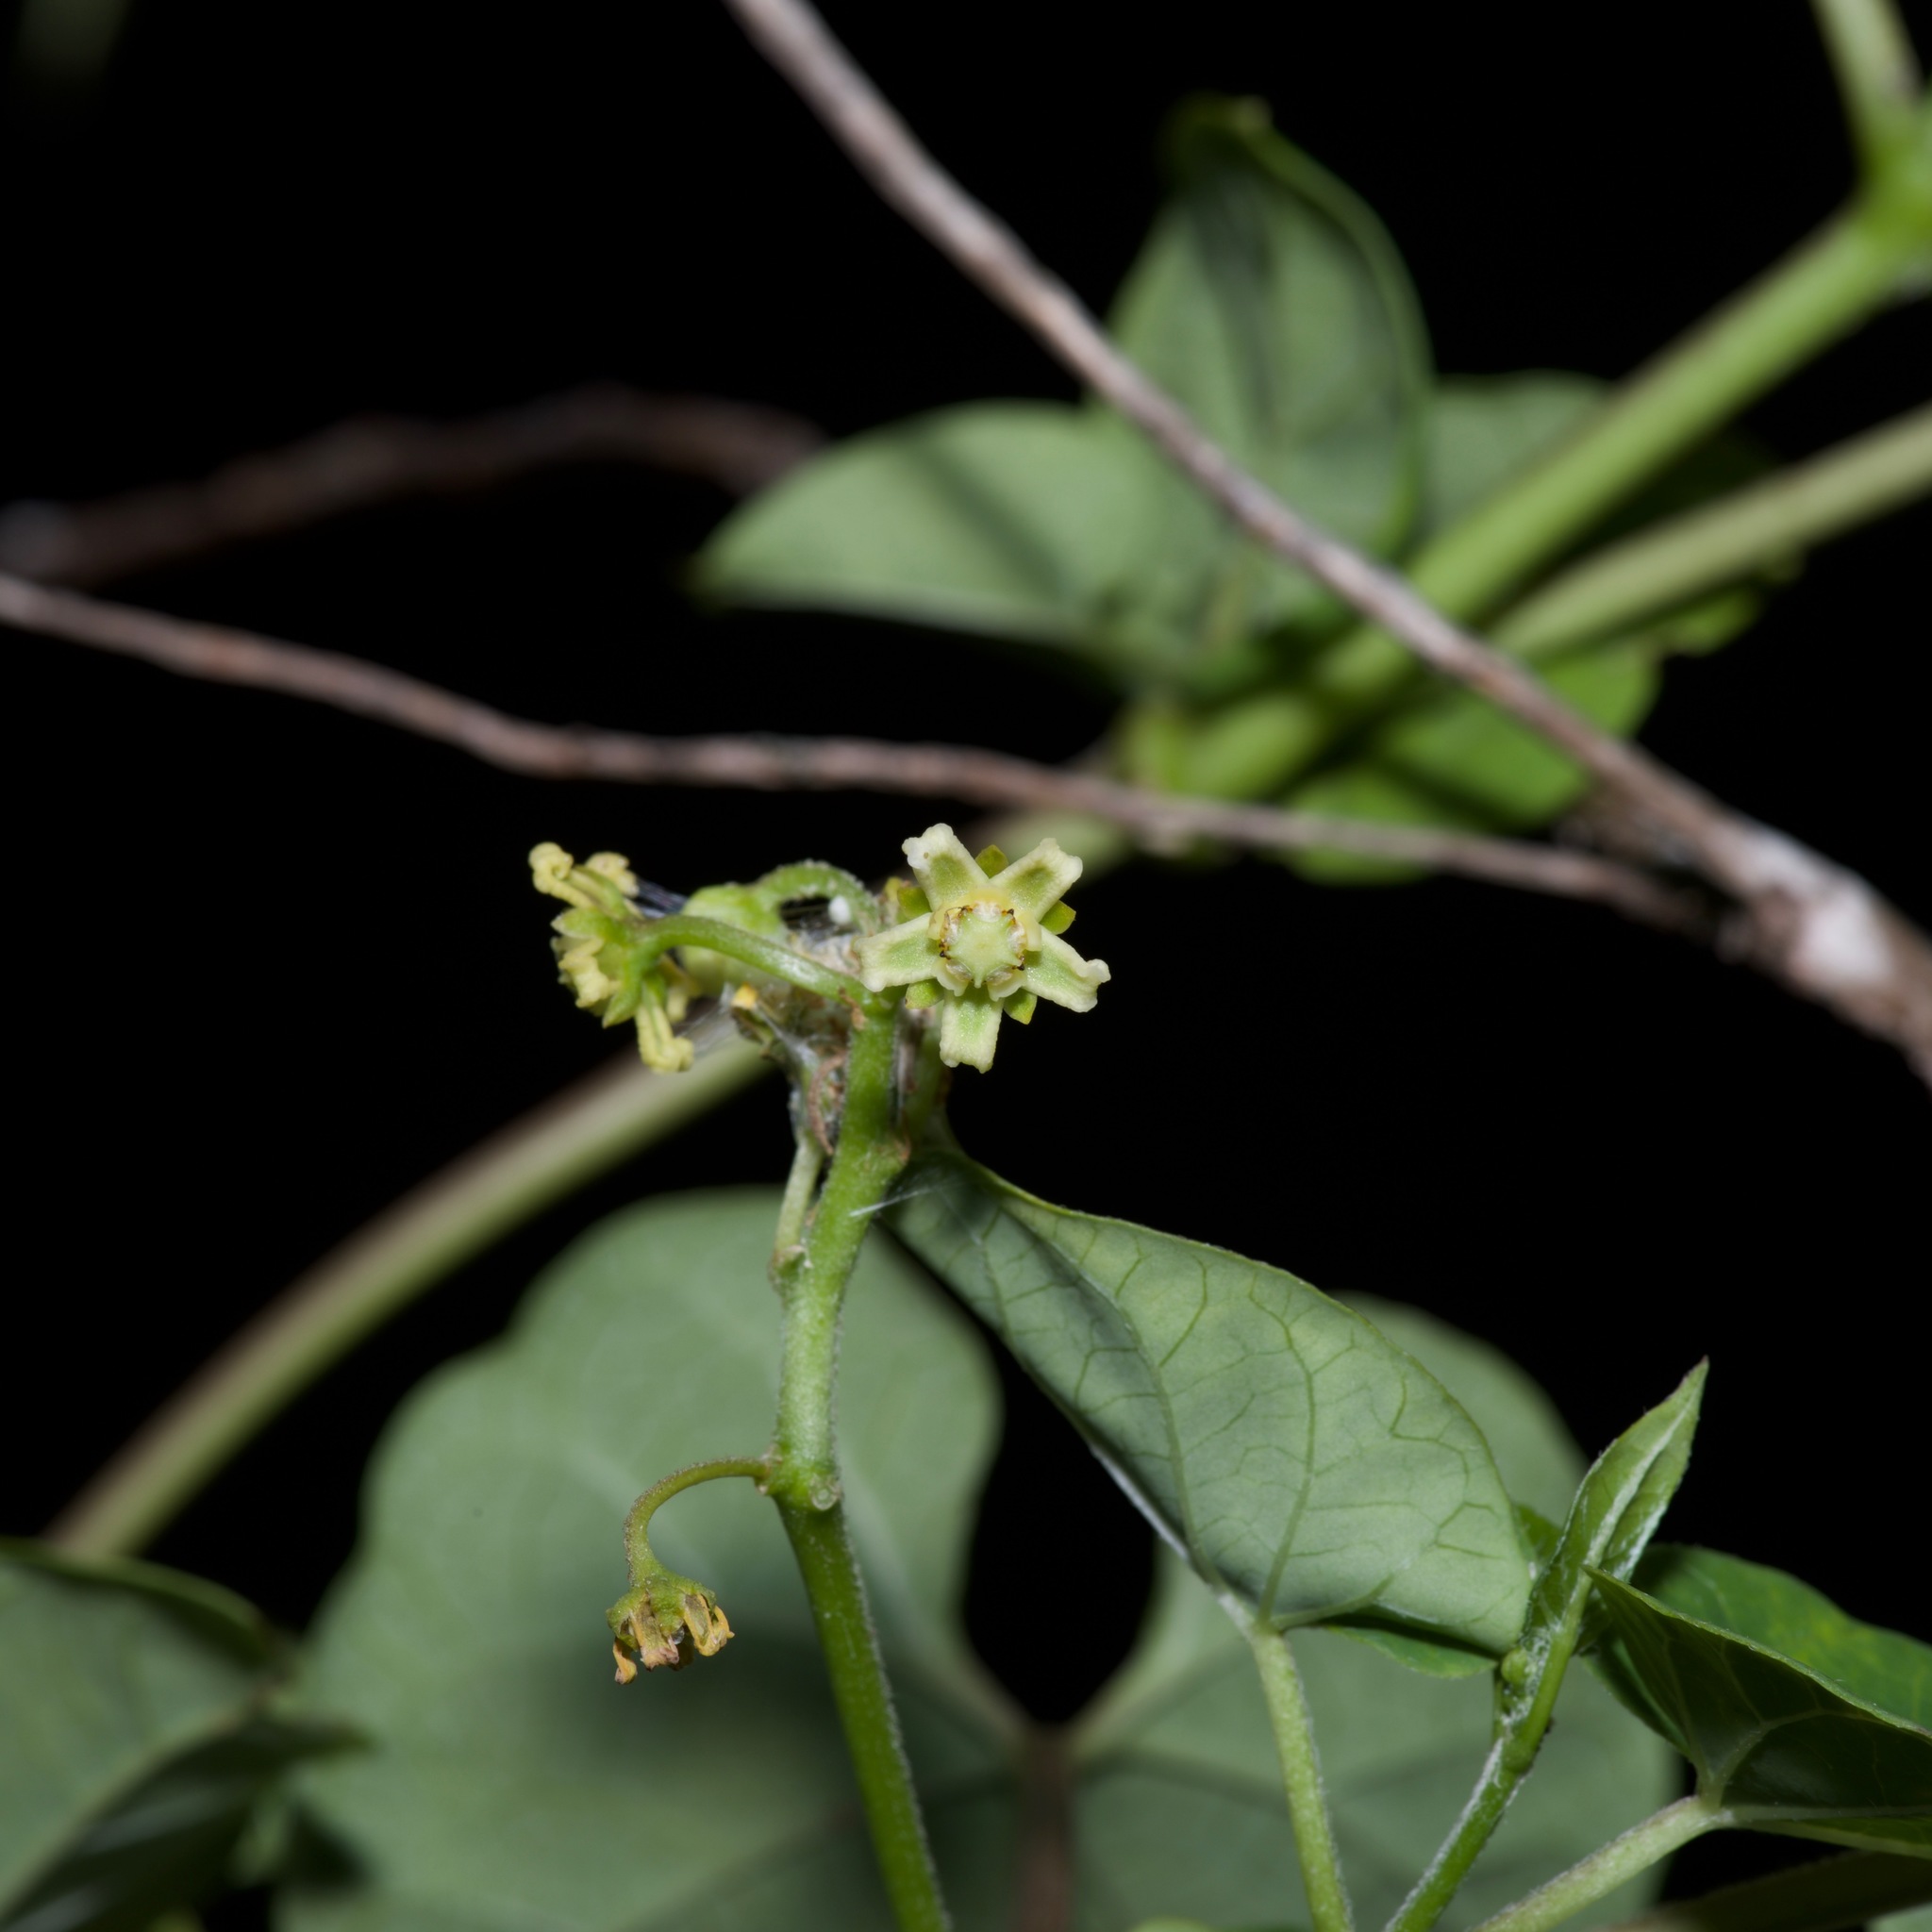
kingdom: Plantae
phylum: Tracheophyta
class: Magnoliopsida
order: Gentianales
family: Apocynaceae
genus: Cynanchum
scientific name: Cynanchum racemosum
